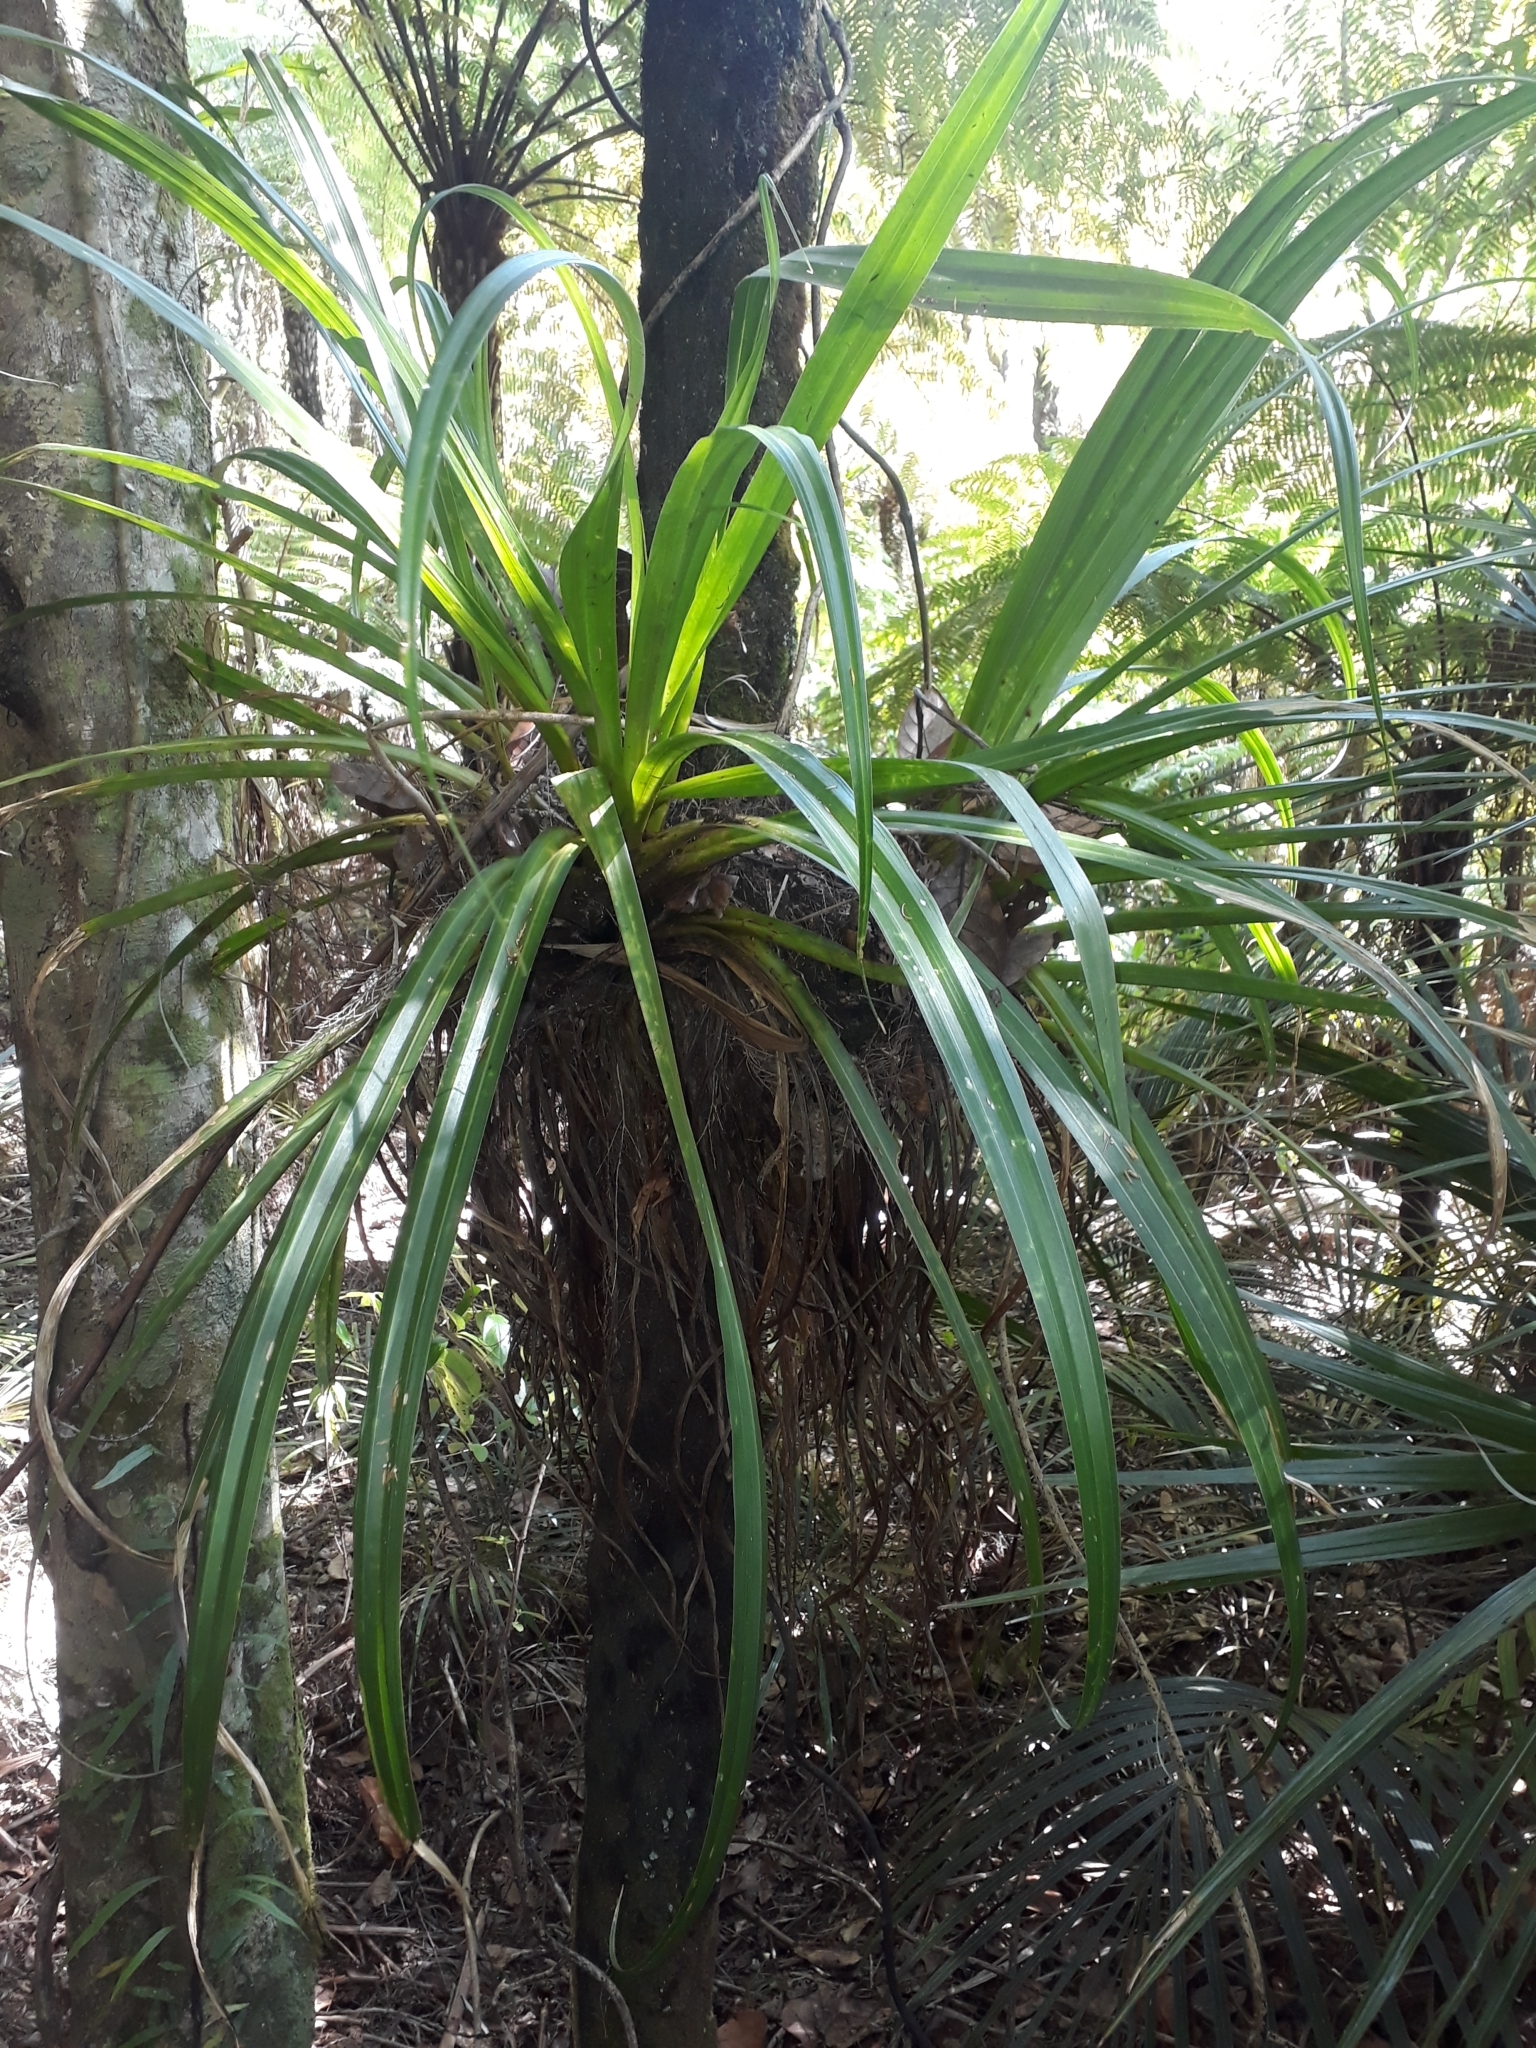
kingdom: Plantae
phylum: Tracheophyta
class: Liliopsida
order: Asparagales
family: Asteliaceae
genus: Astelia
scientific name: Astelia hastata
